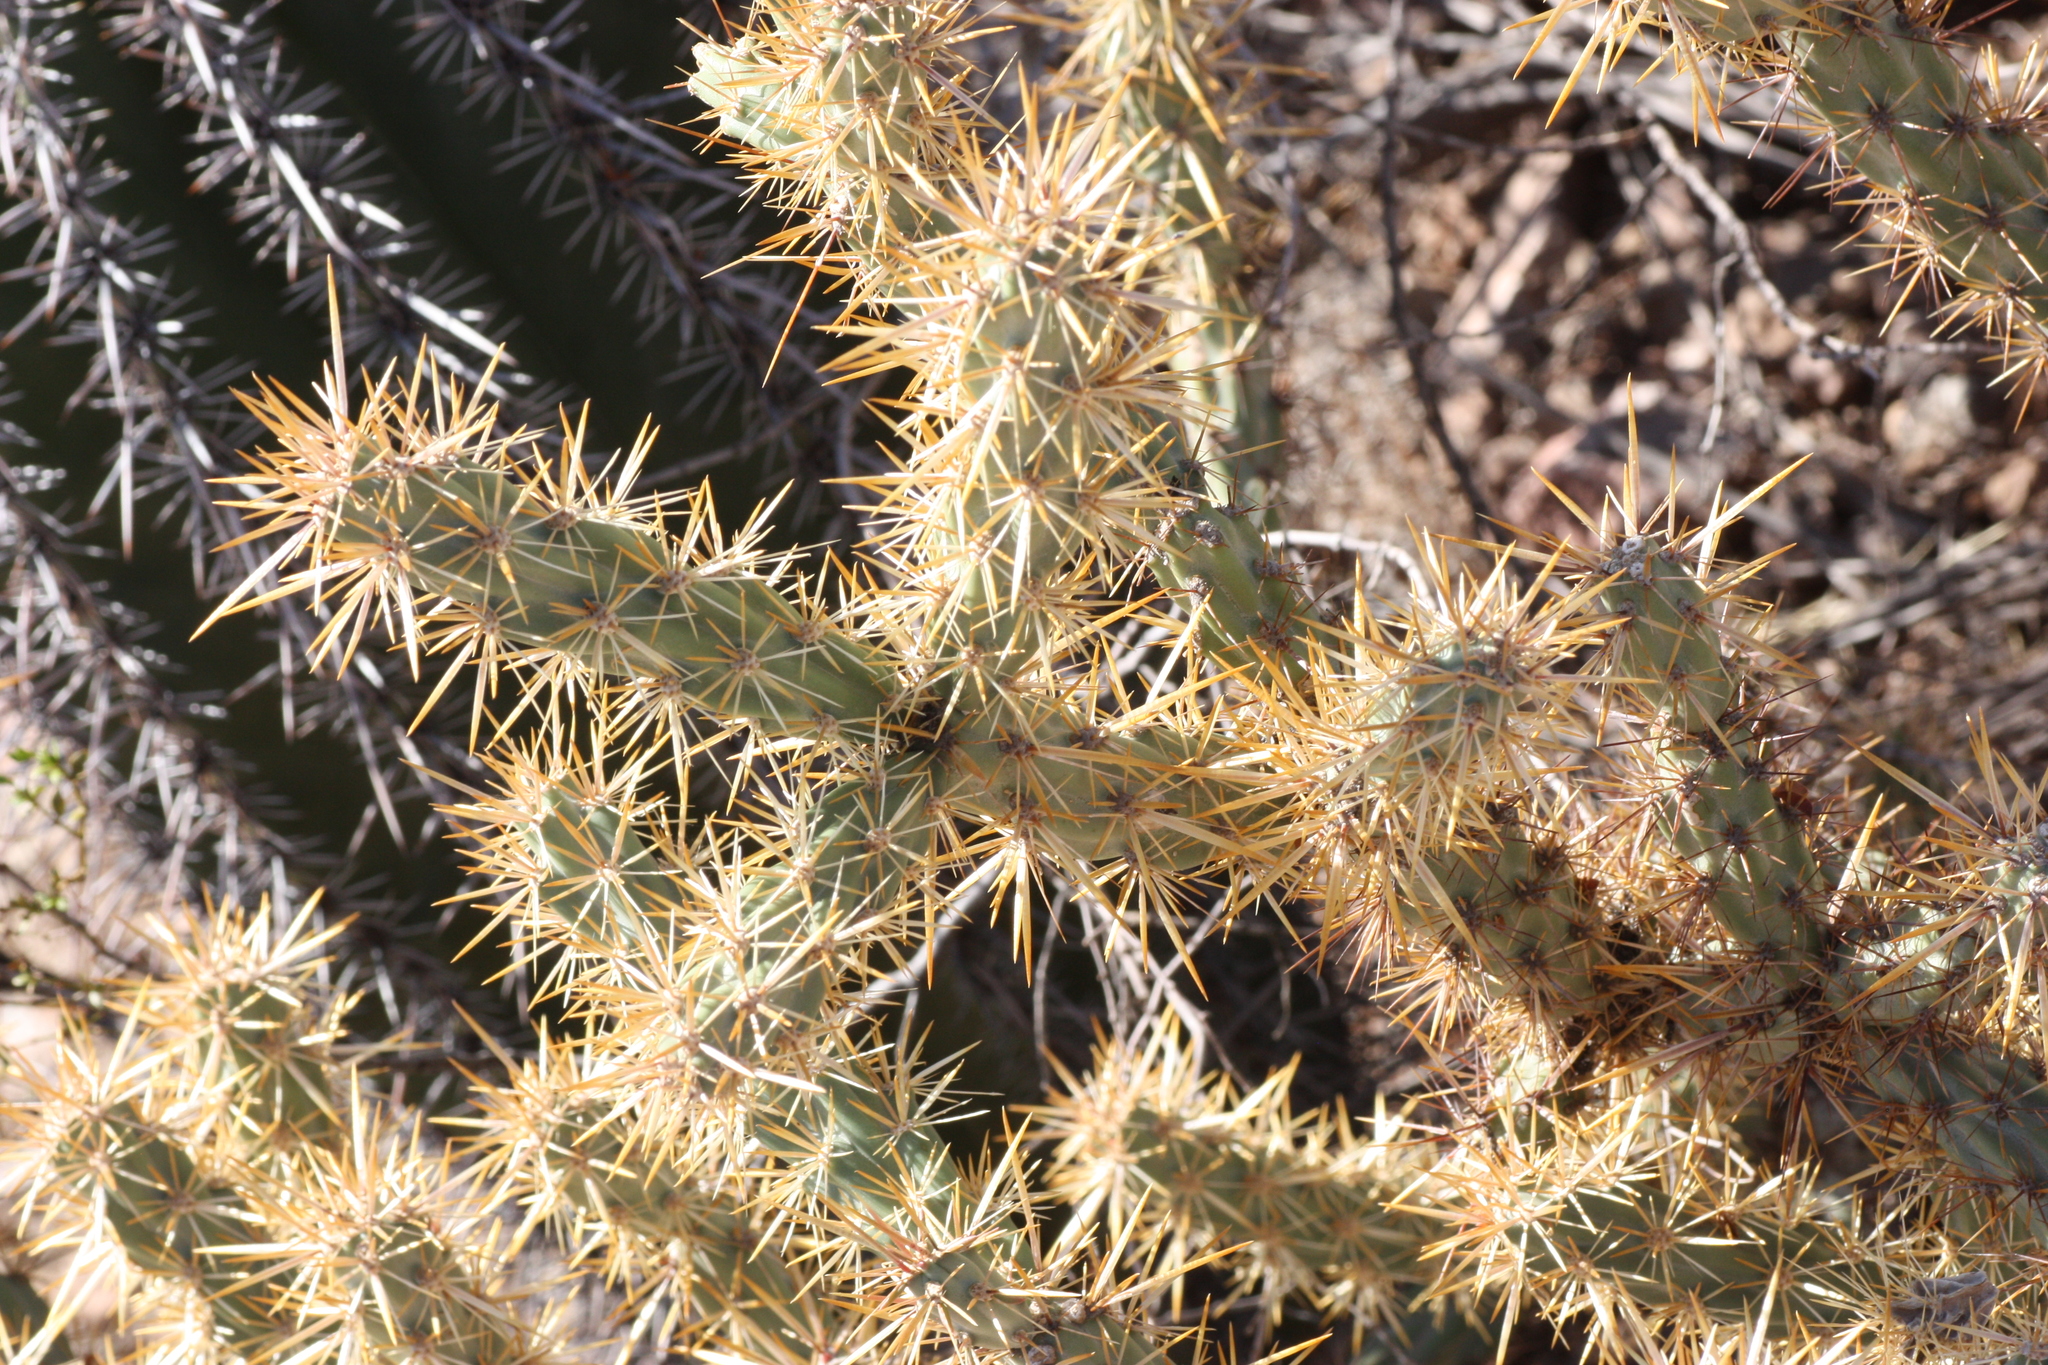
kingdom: Plantae
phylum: Tracheophyta
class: Magnoliopsida
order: Caryophyllales
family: Cactaceae
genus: Cylindropuntia
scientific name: Cylindropuntia acanthocarpa
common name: Buckhorn cholla
